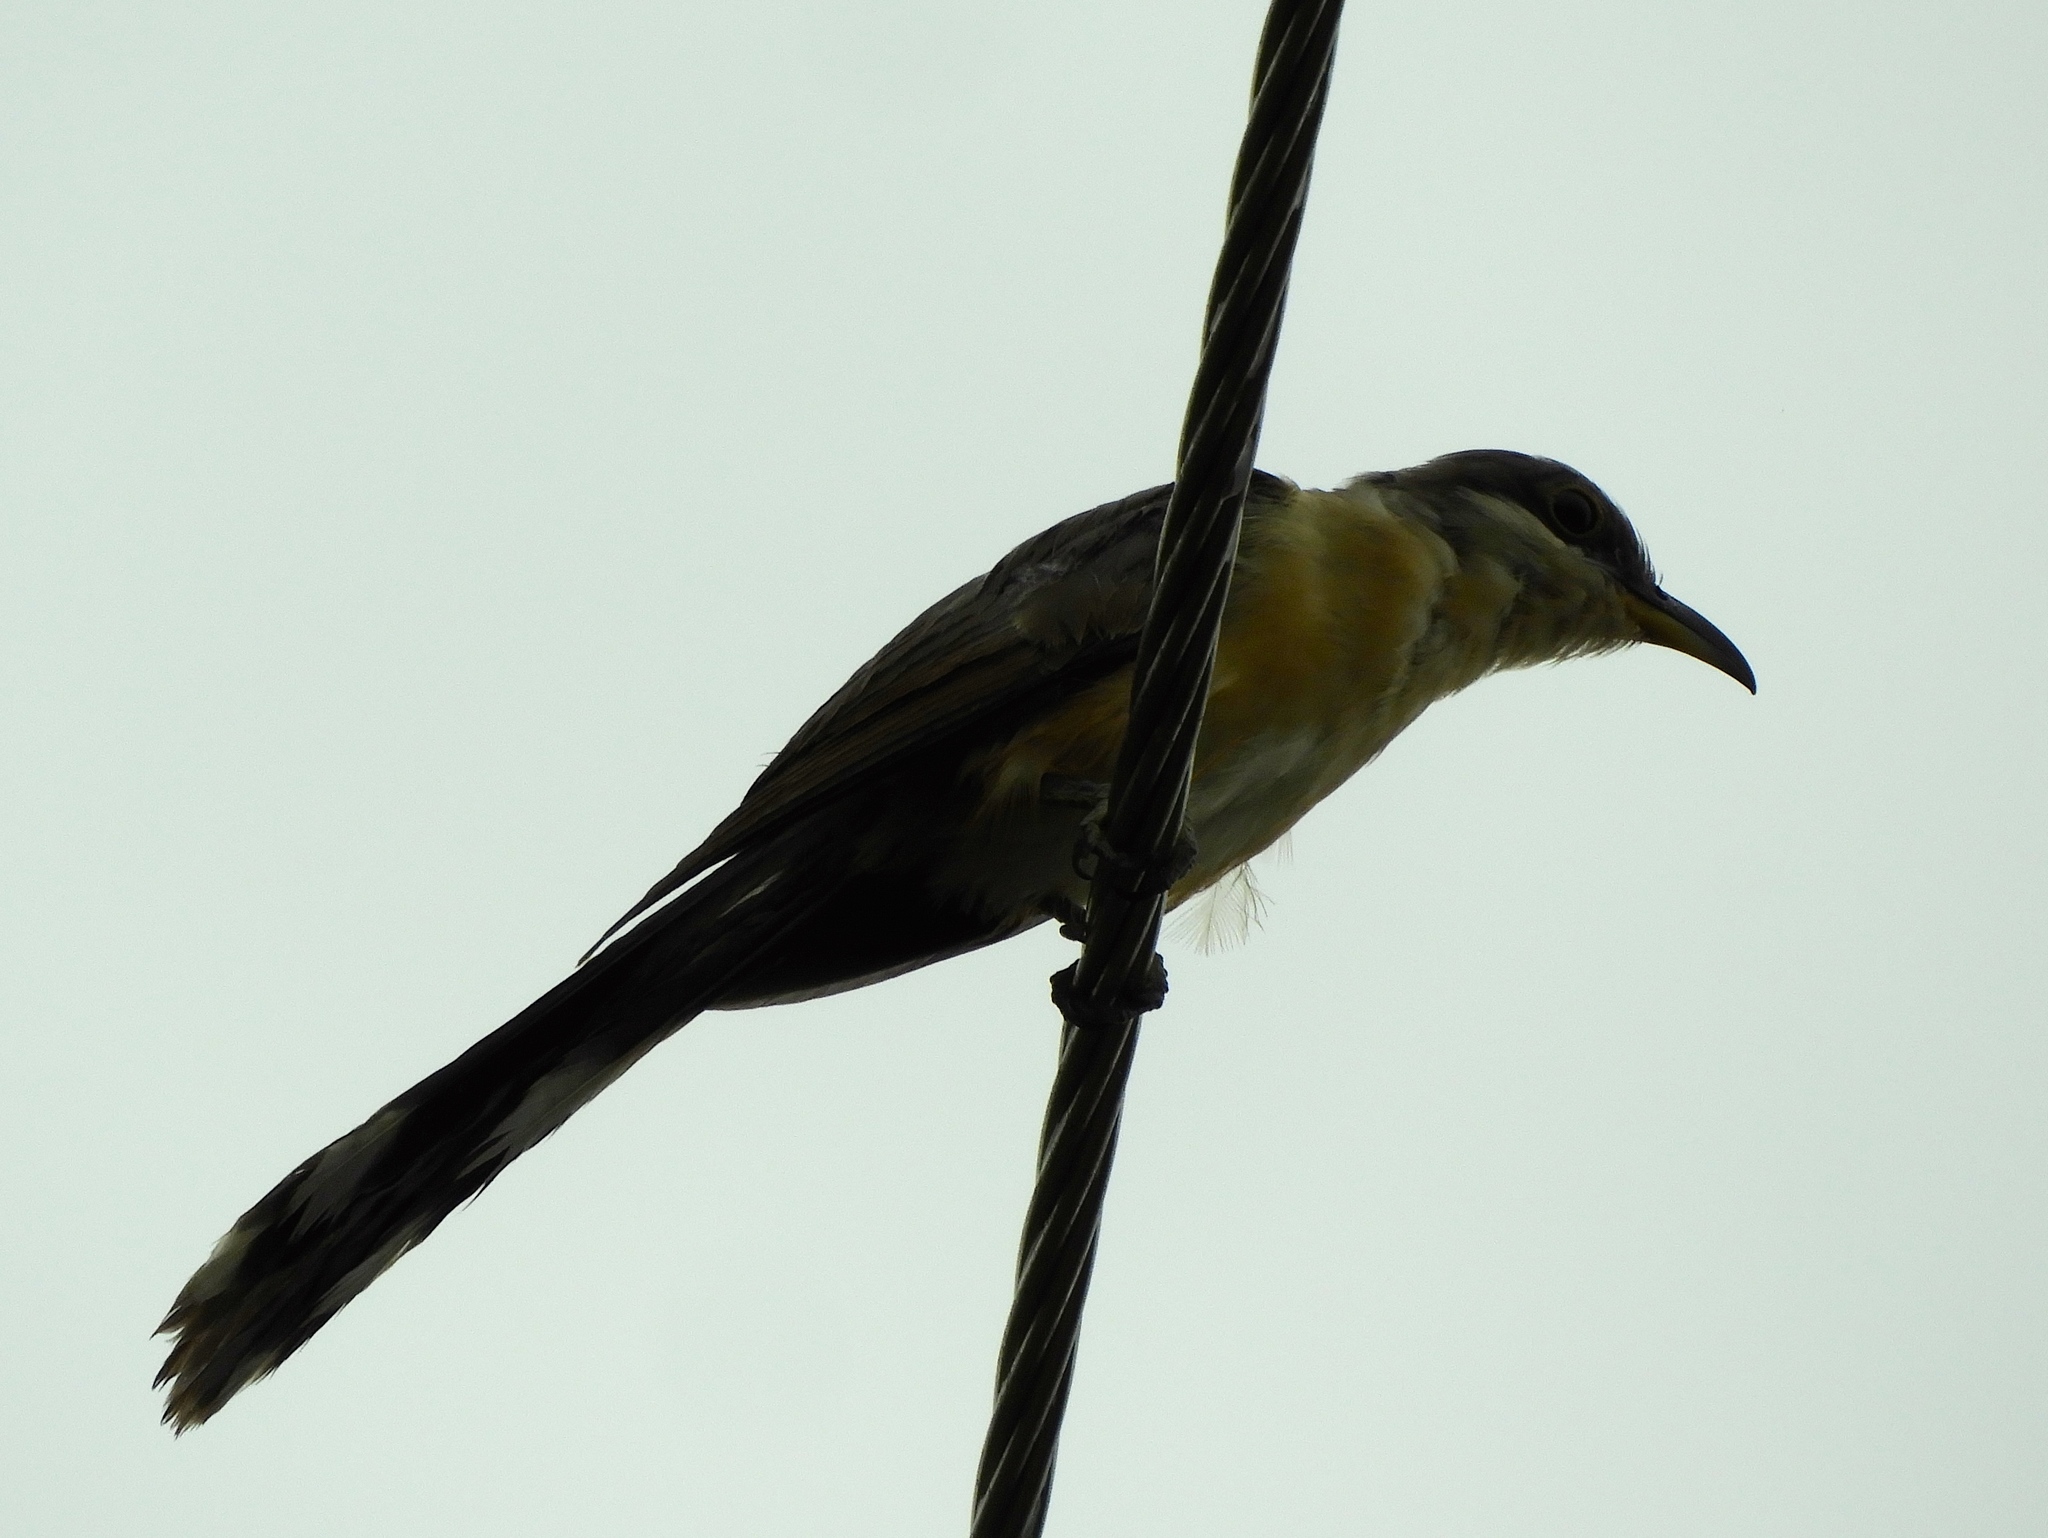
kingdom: Animalia
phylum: Chordata
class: Aves
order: Cuculiformes
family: Cuculidae
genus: Coccyzus
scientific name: Coccyzus minor
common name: Mangrove cuckoo
